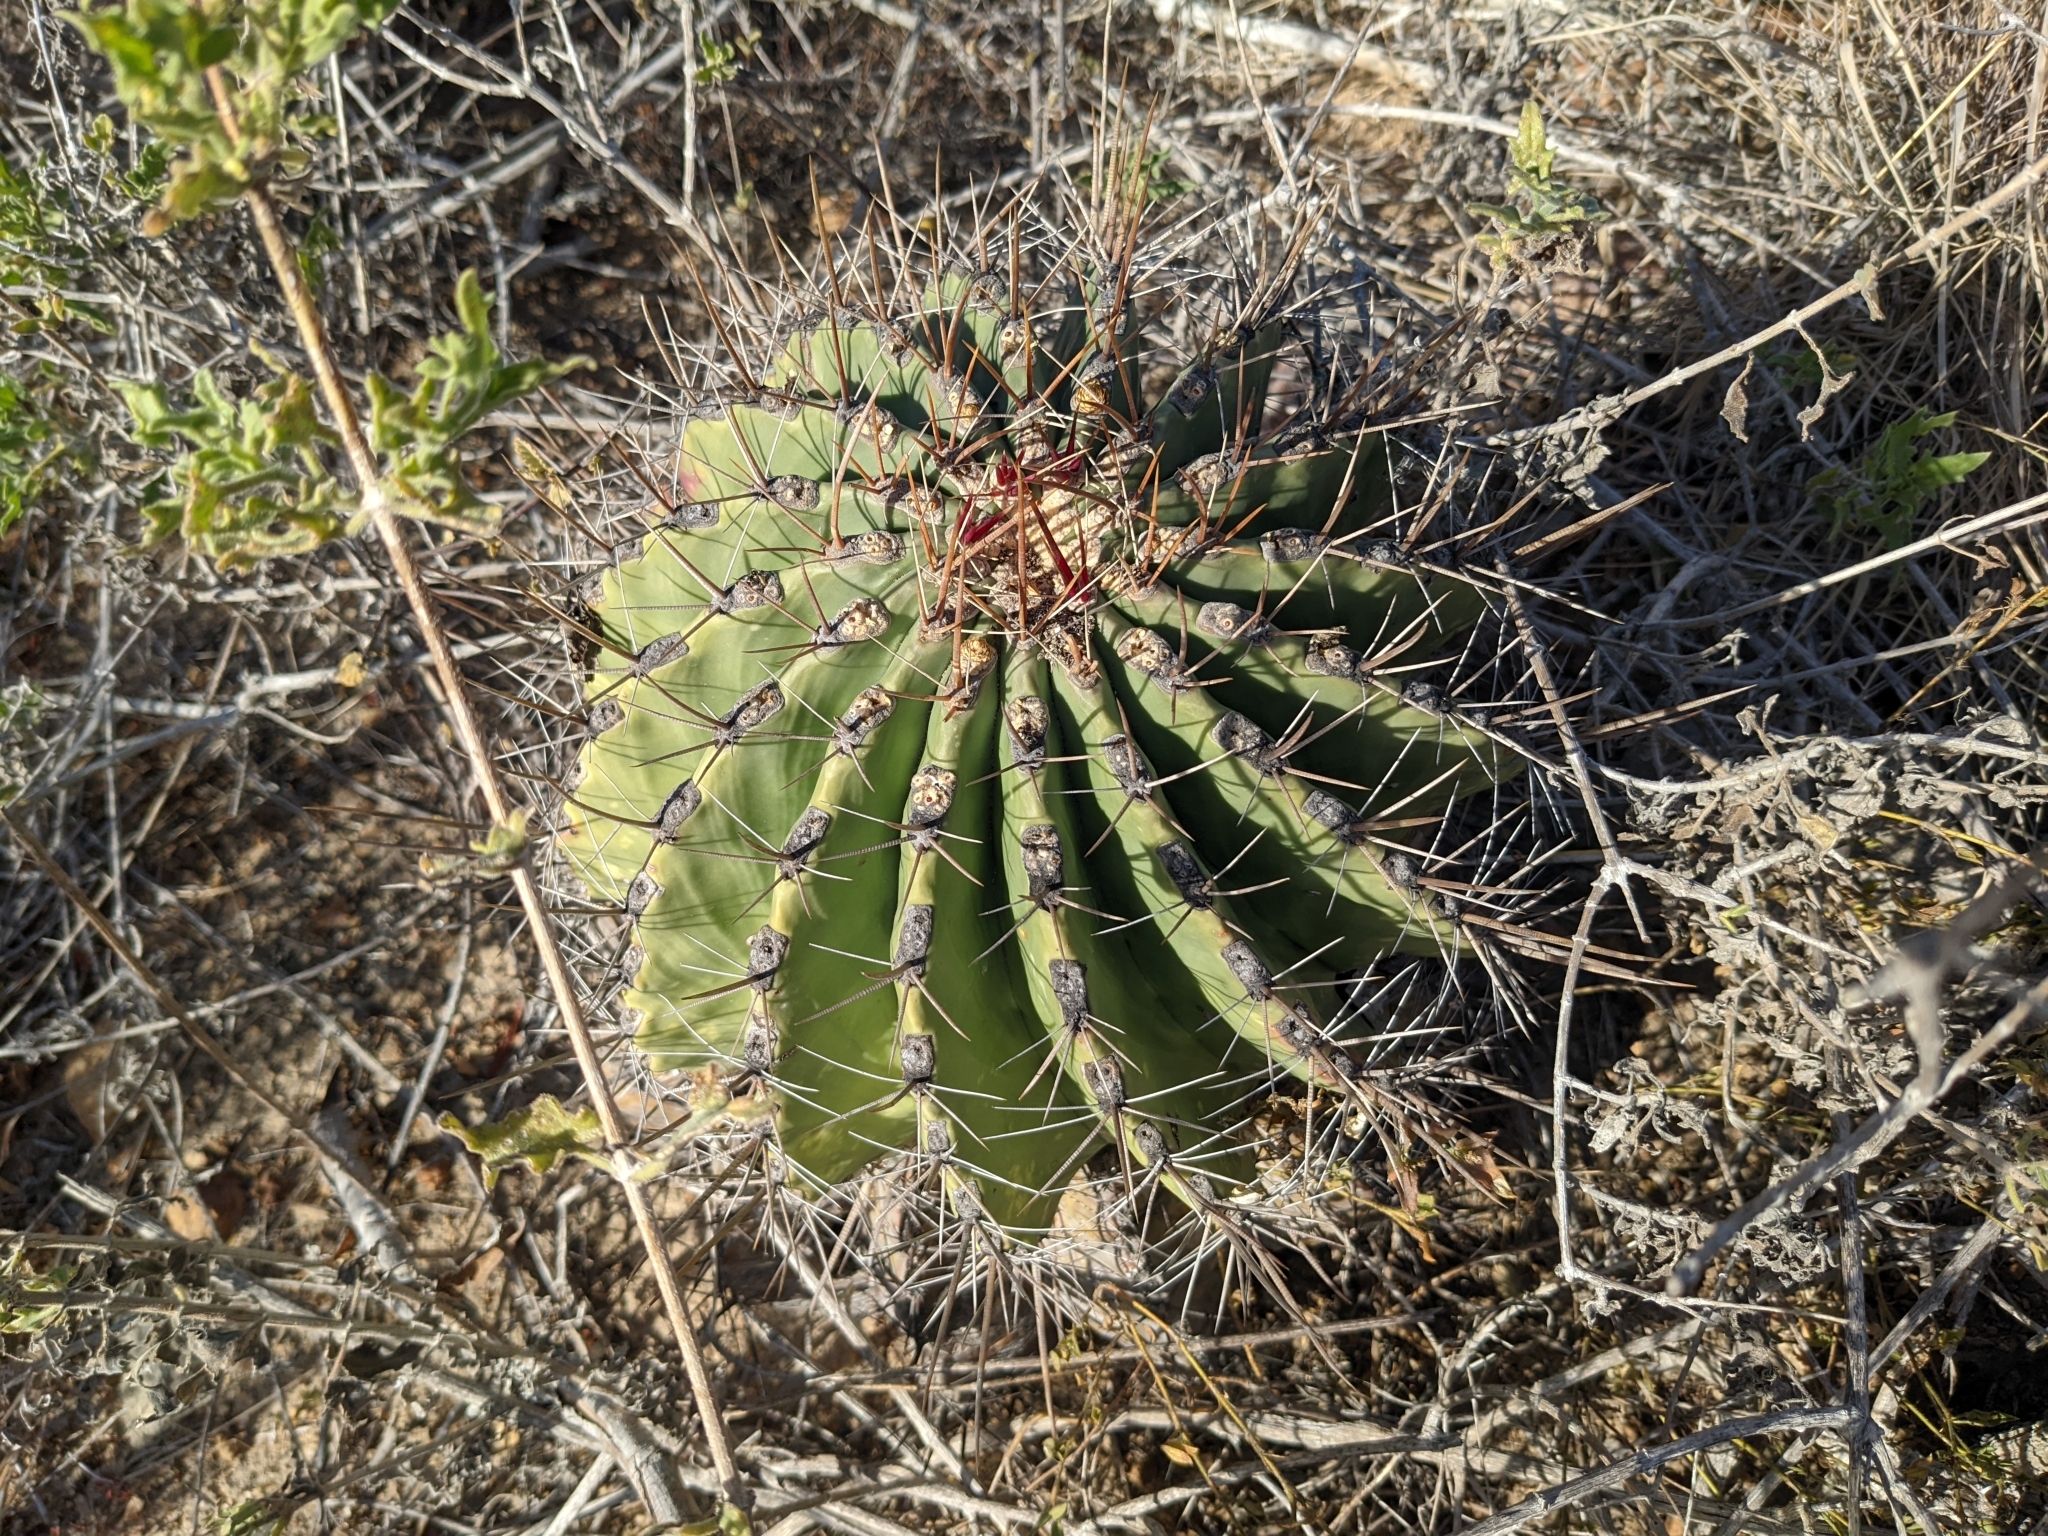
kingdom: Plantae
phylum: Tracheophyta
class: Magnoliopsida
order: Caryophyllales
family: Cactaceae
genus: Ferocactus
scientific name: Ferocactus townsendianus
